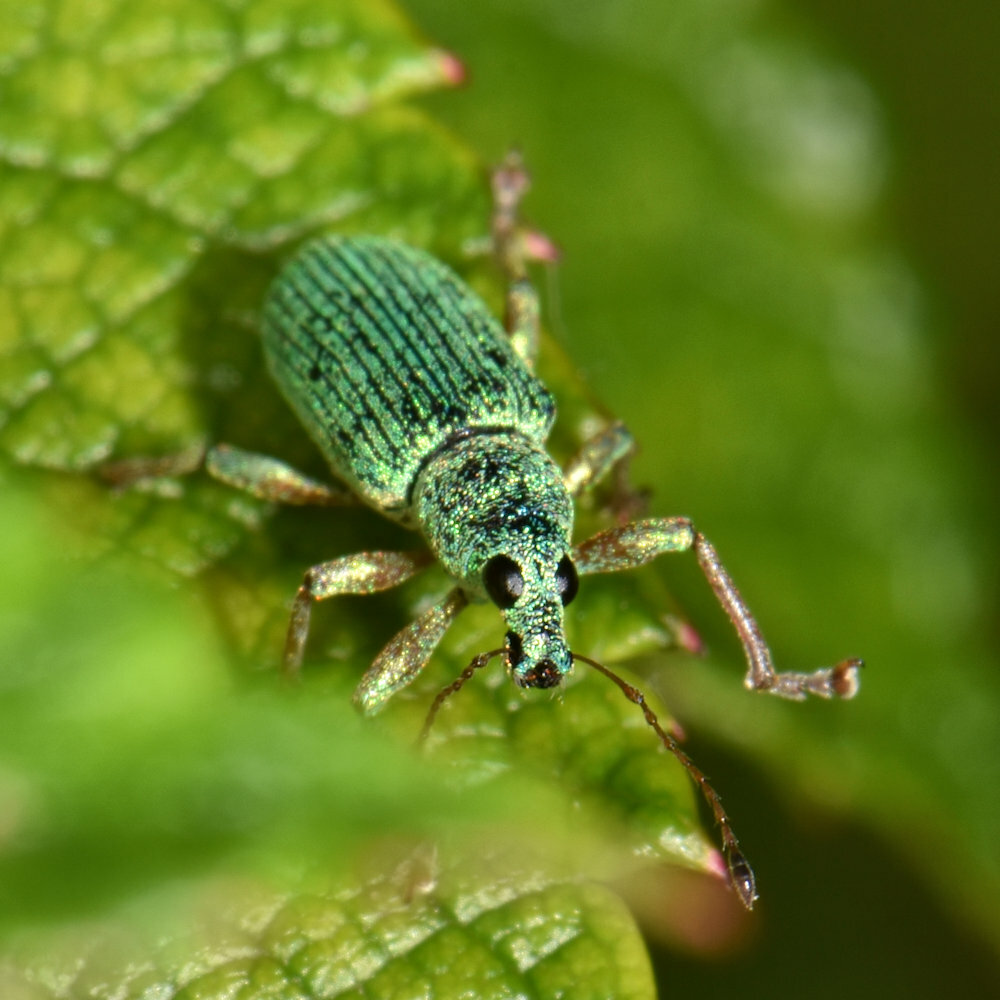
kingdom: Animalia
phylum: Arthropoda
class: Insecta
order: Coleoptera
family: Curculionidae
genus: Polydrusus
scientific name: Polydrusus formosus
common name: Weevil
